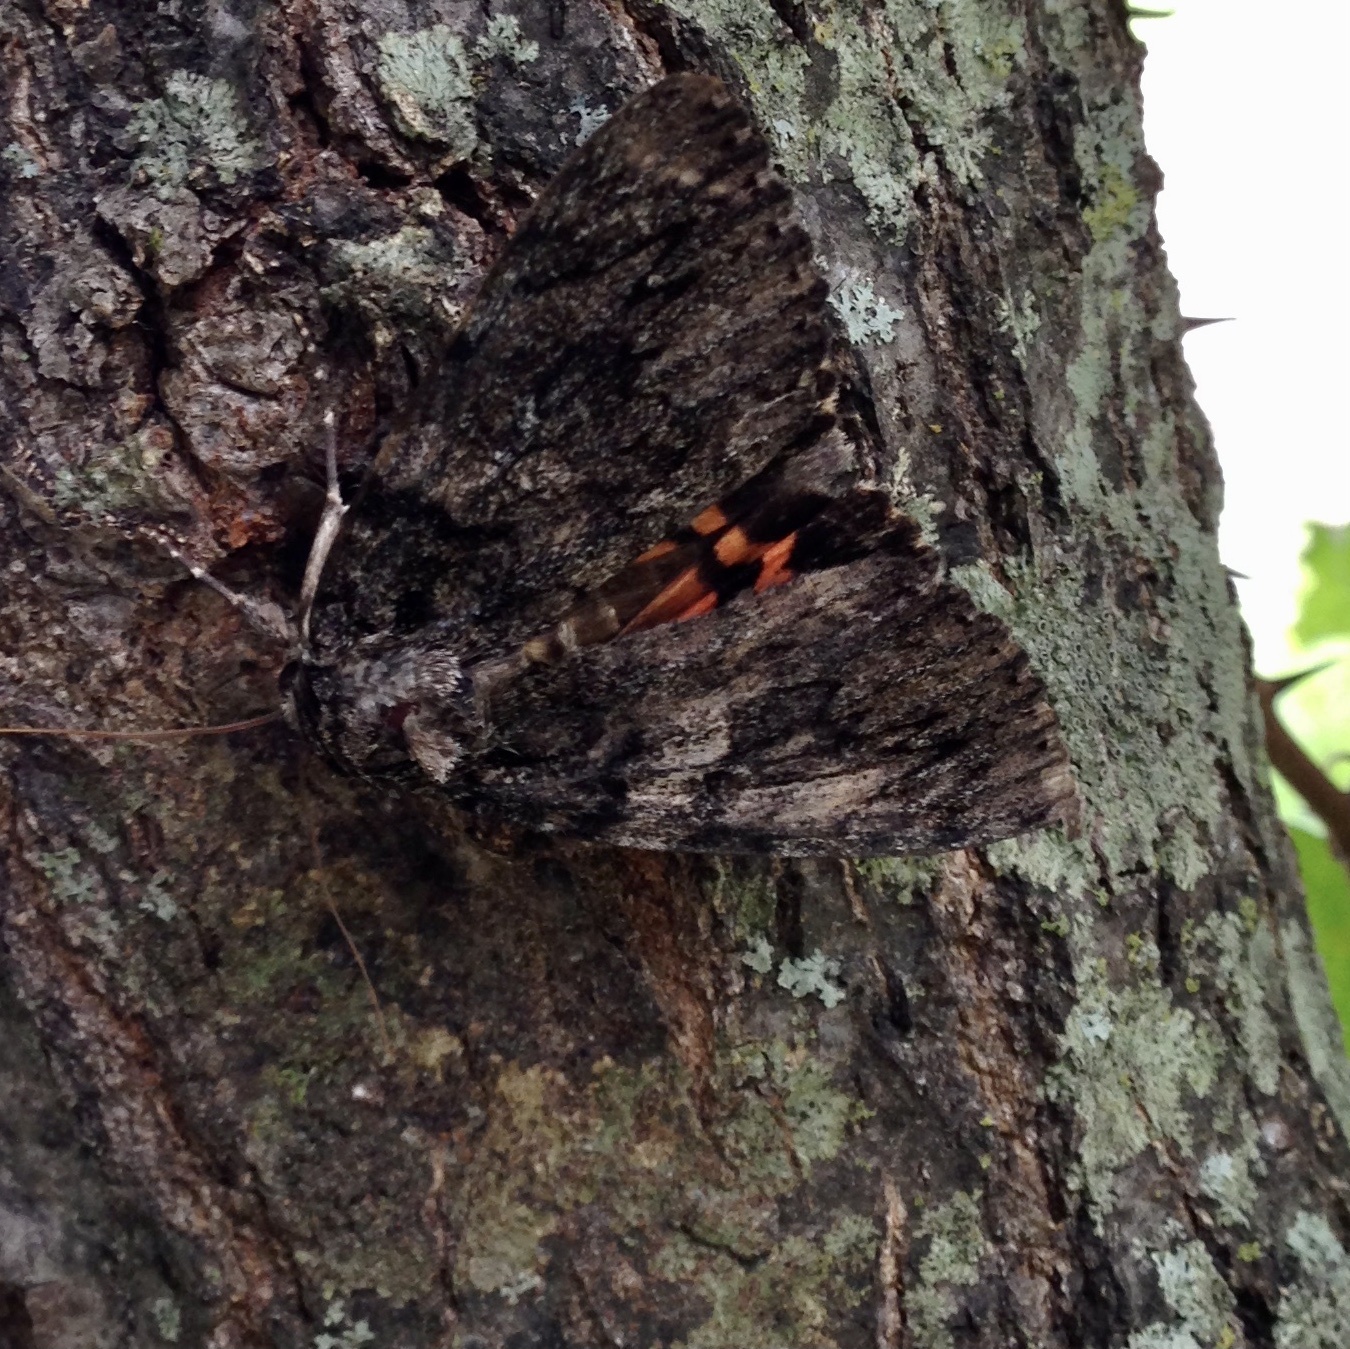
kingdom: Animalia
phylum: Arthropoda
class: Insecta
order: Lepidoptera
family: Erebidae
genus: Catocala
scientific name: Catocala ilia
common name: Ilia underwing
